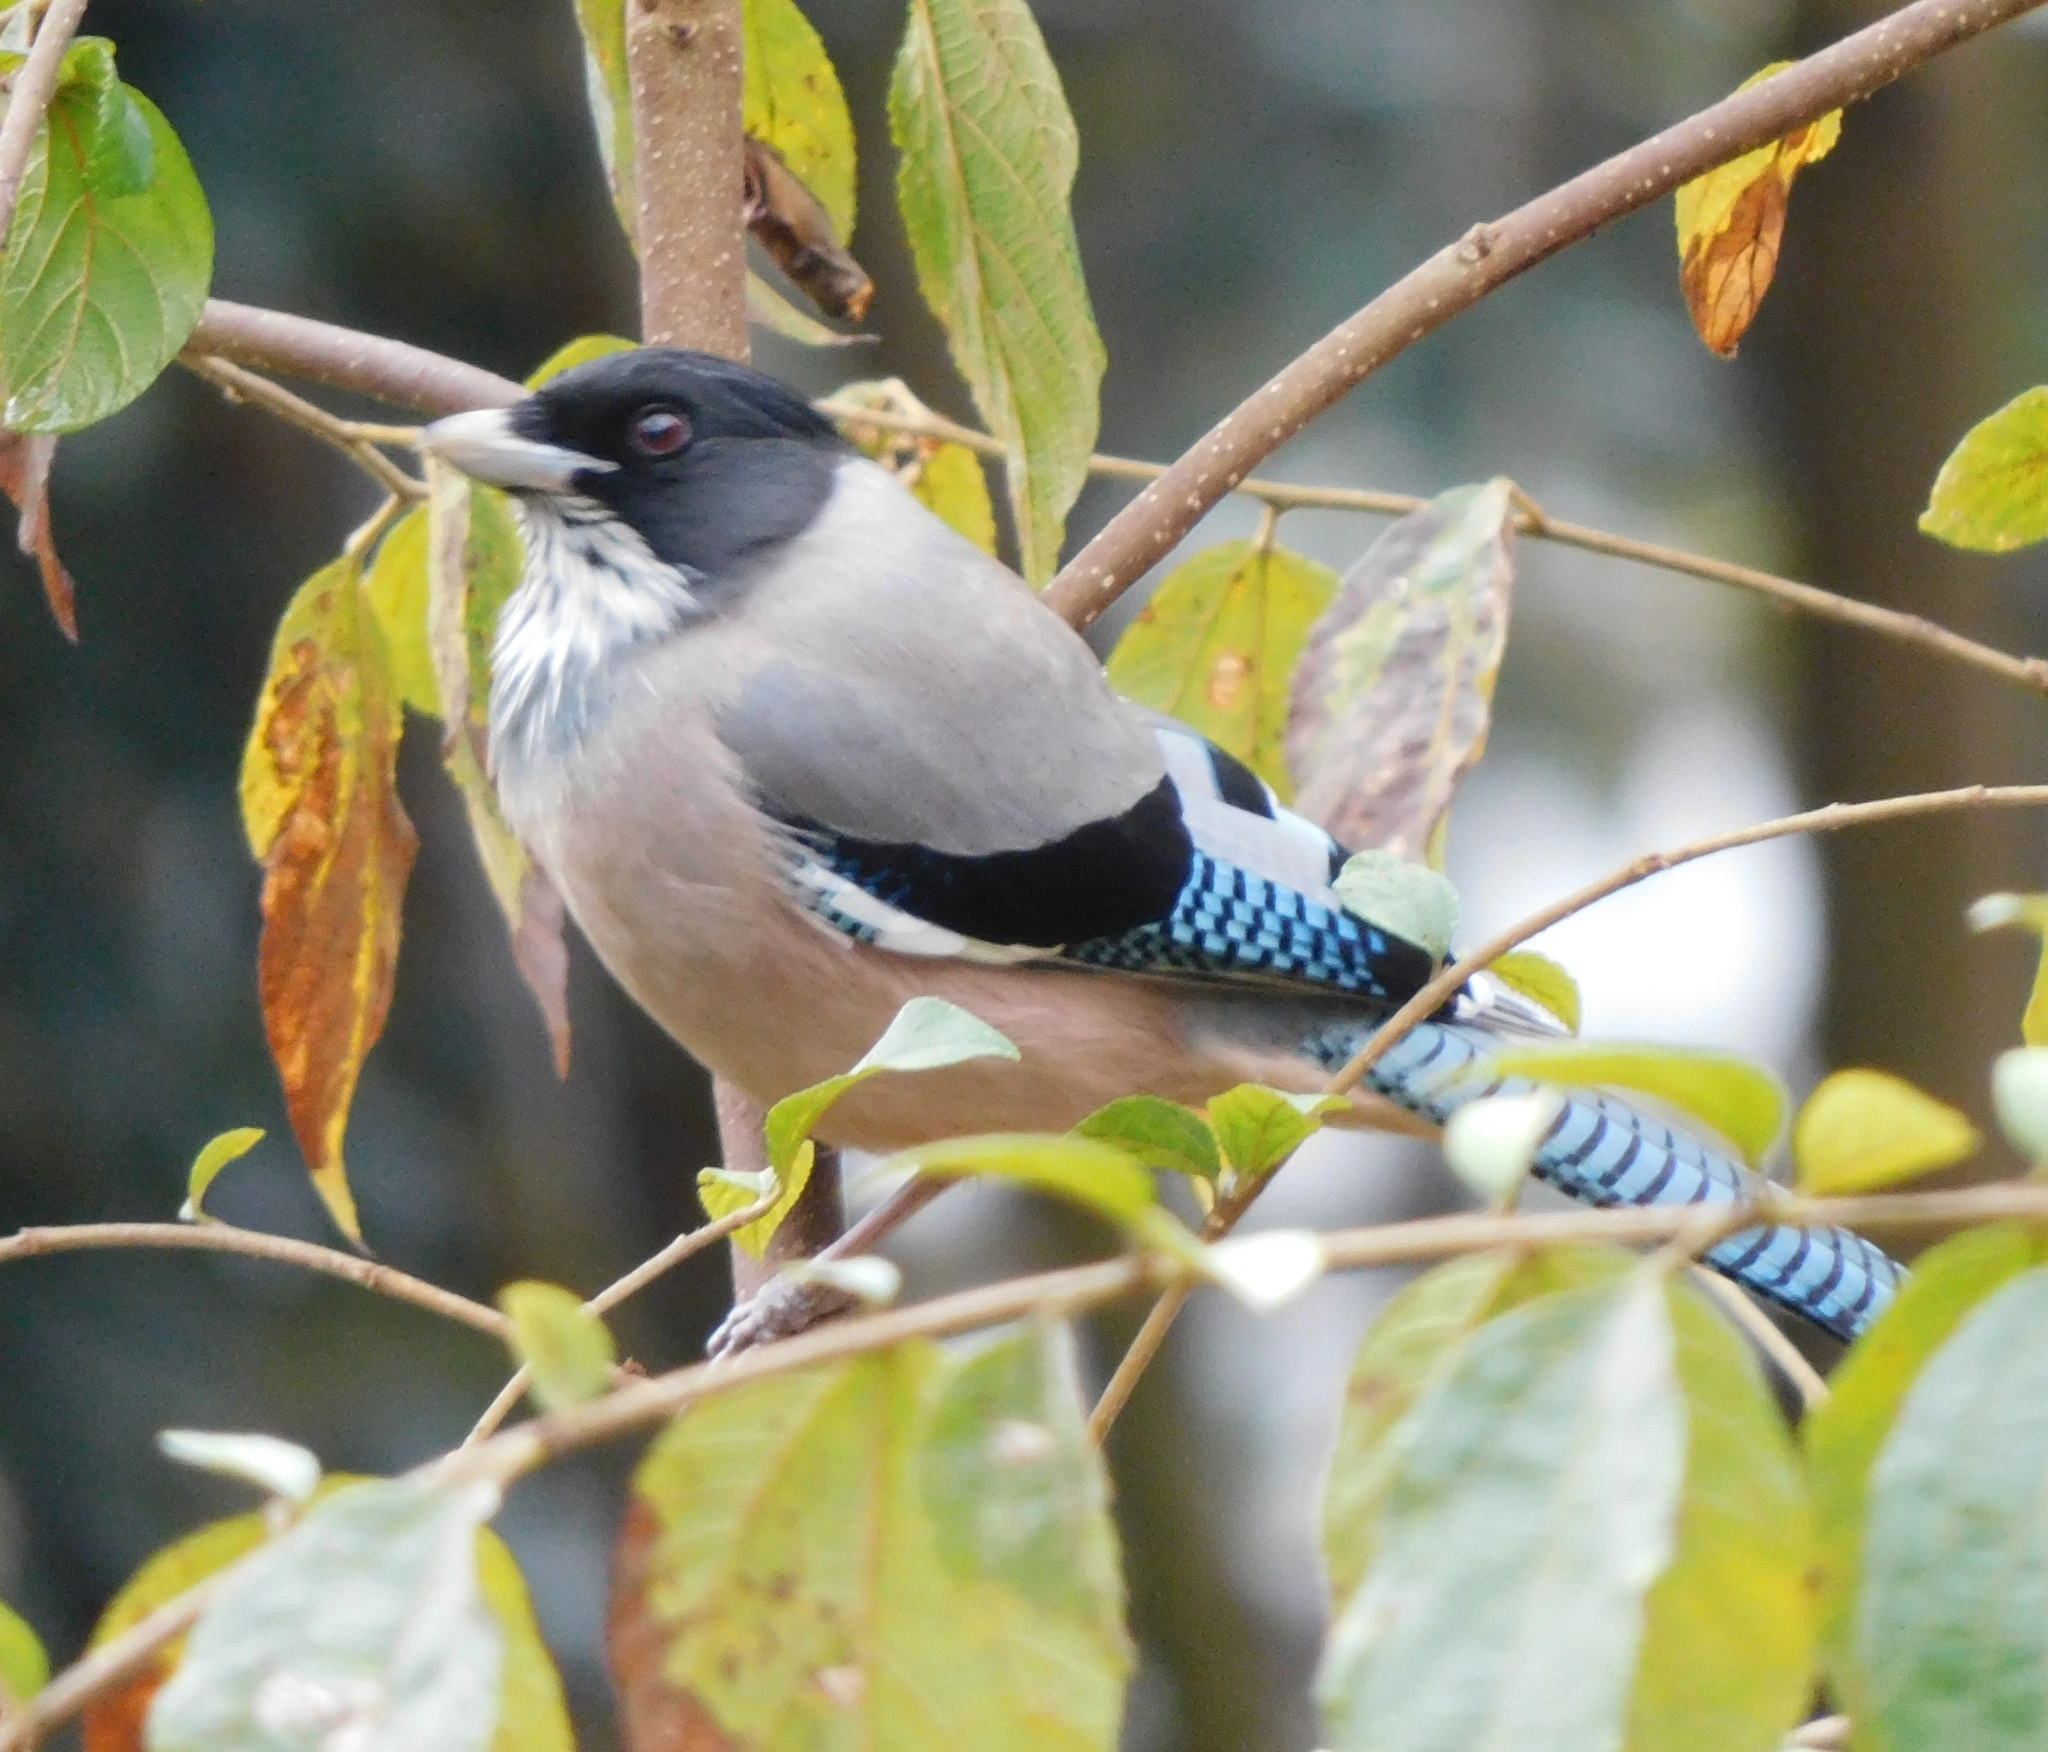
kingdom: Animalia
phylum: Chordata
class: Aves
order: Passeriformes
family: Corvidae
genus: Garrulus
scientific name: Garrulus lanceolatus
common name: Black-headed jay
